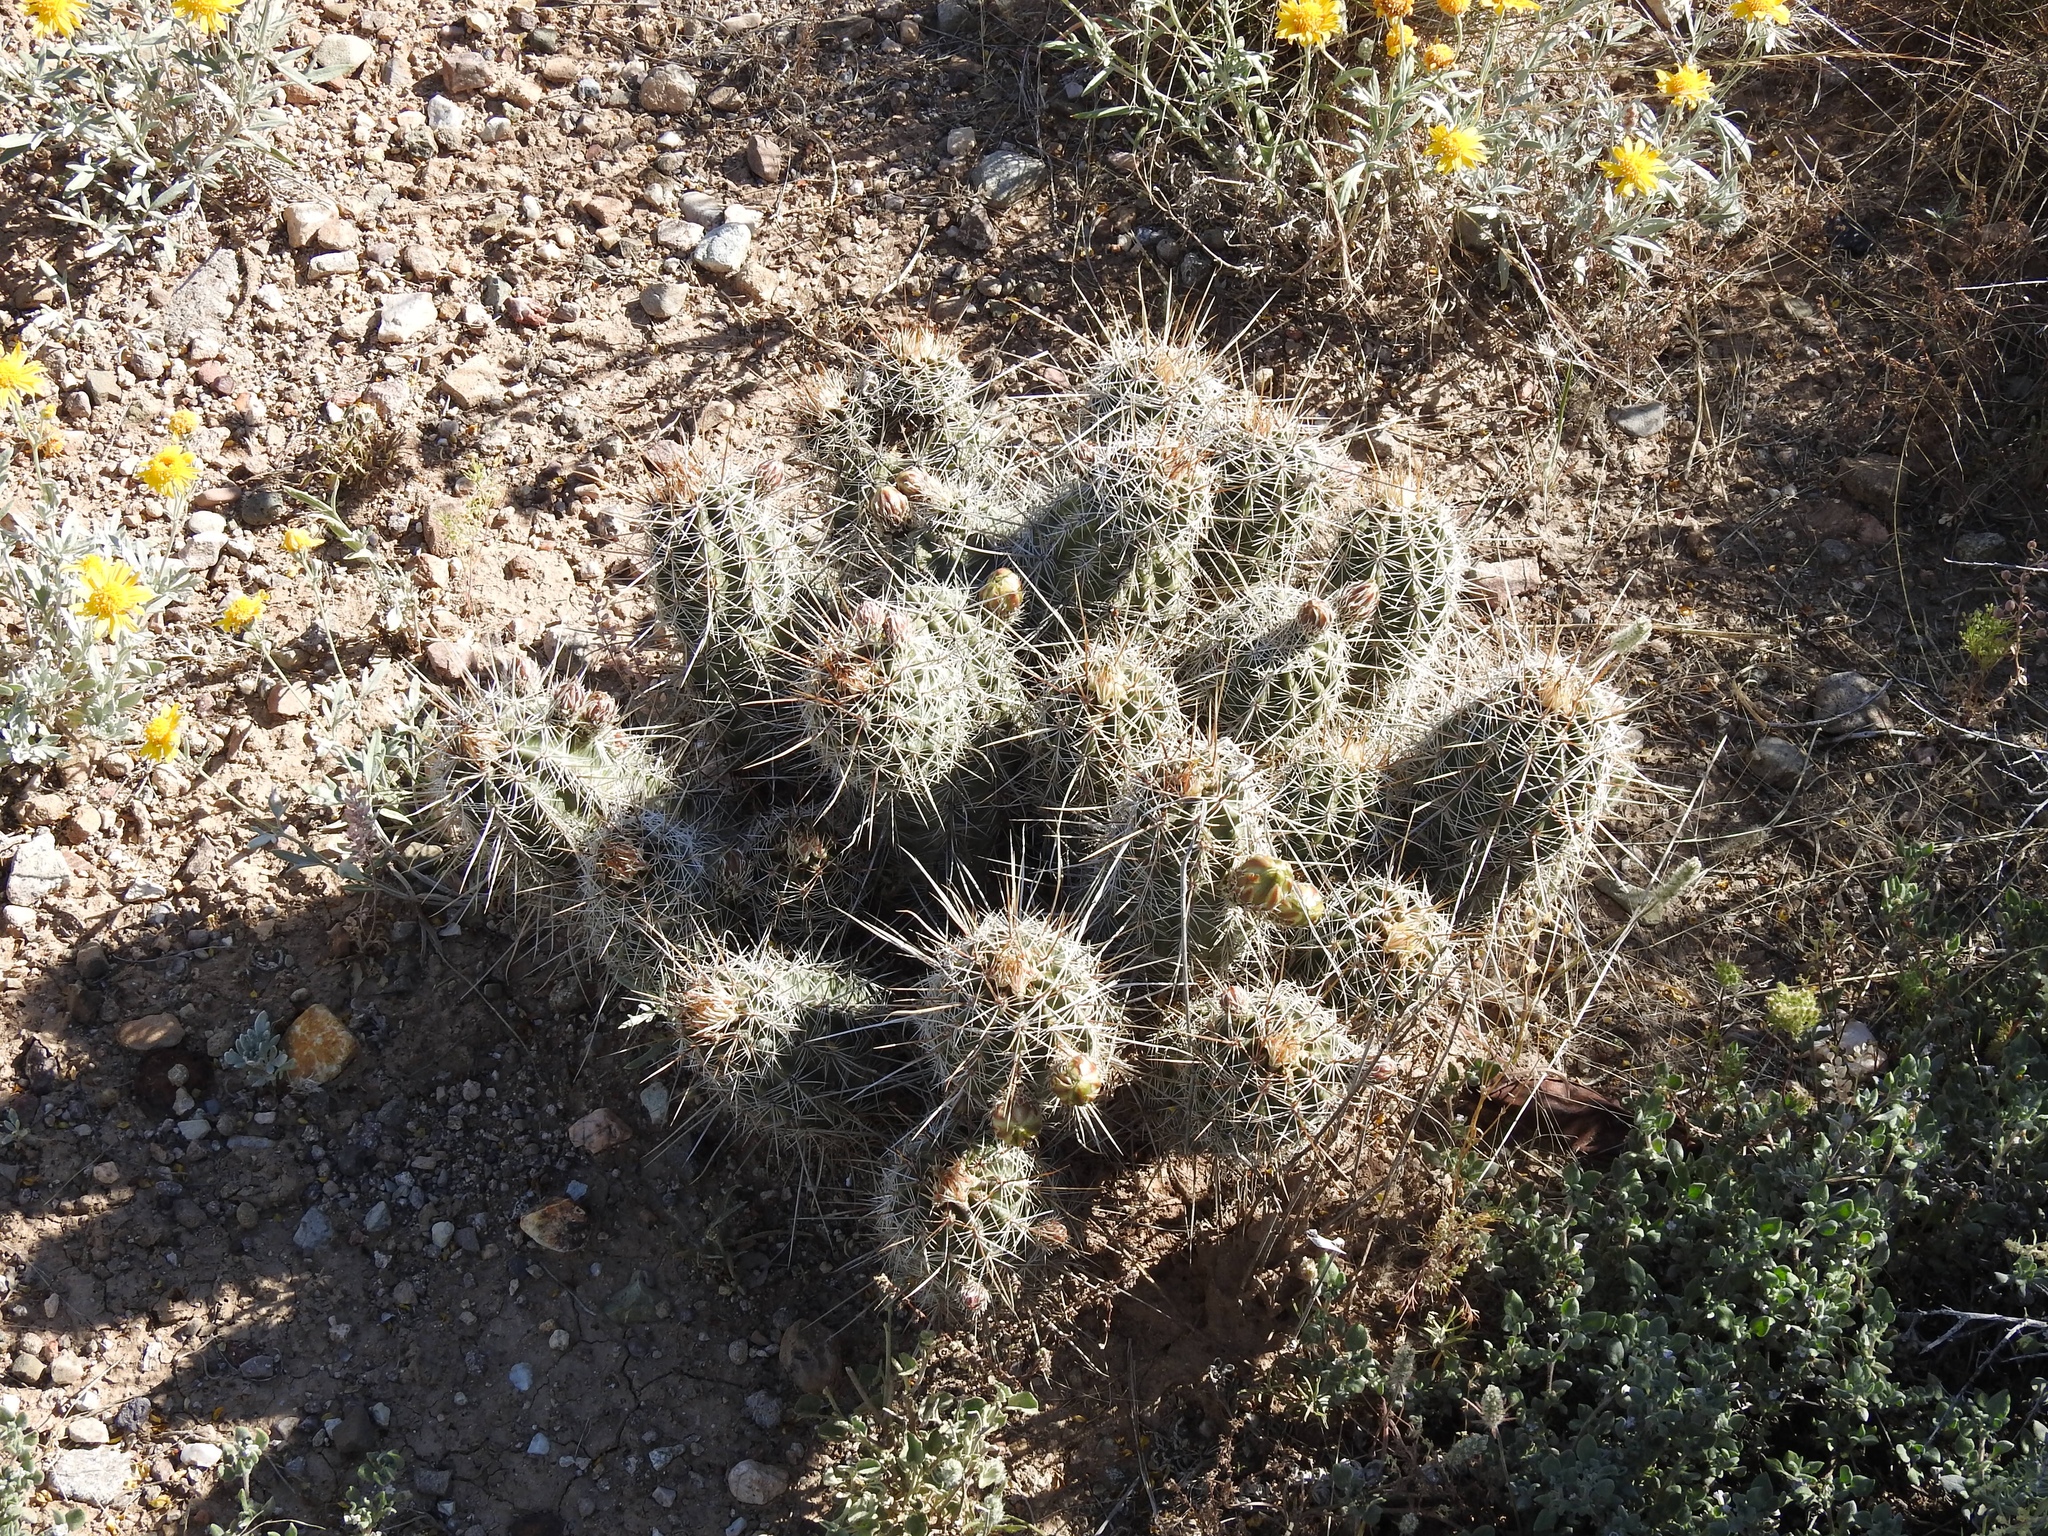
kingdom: Plantae
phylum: Tracheophyta
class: Magnoliopsida
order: Caryophyllales
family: Cactaceae
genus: Echinocereus
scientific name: Echinocereus fasciculatus
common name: Bundle hedgehog
